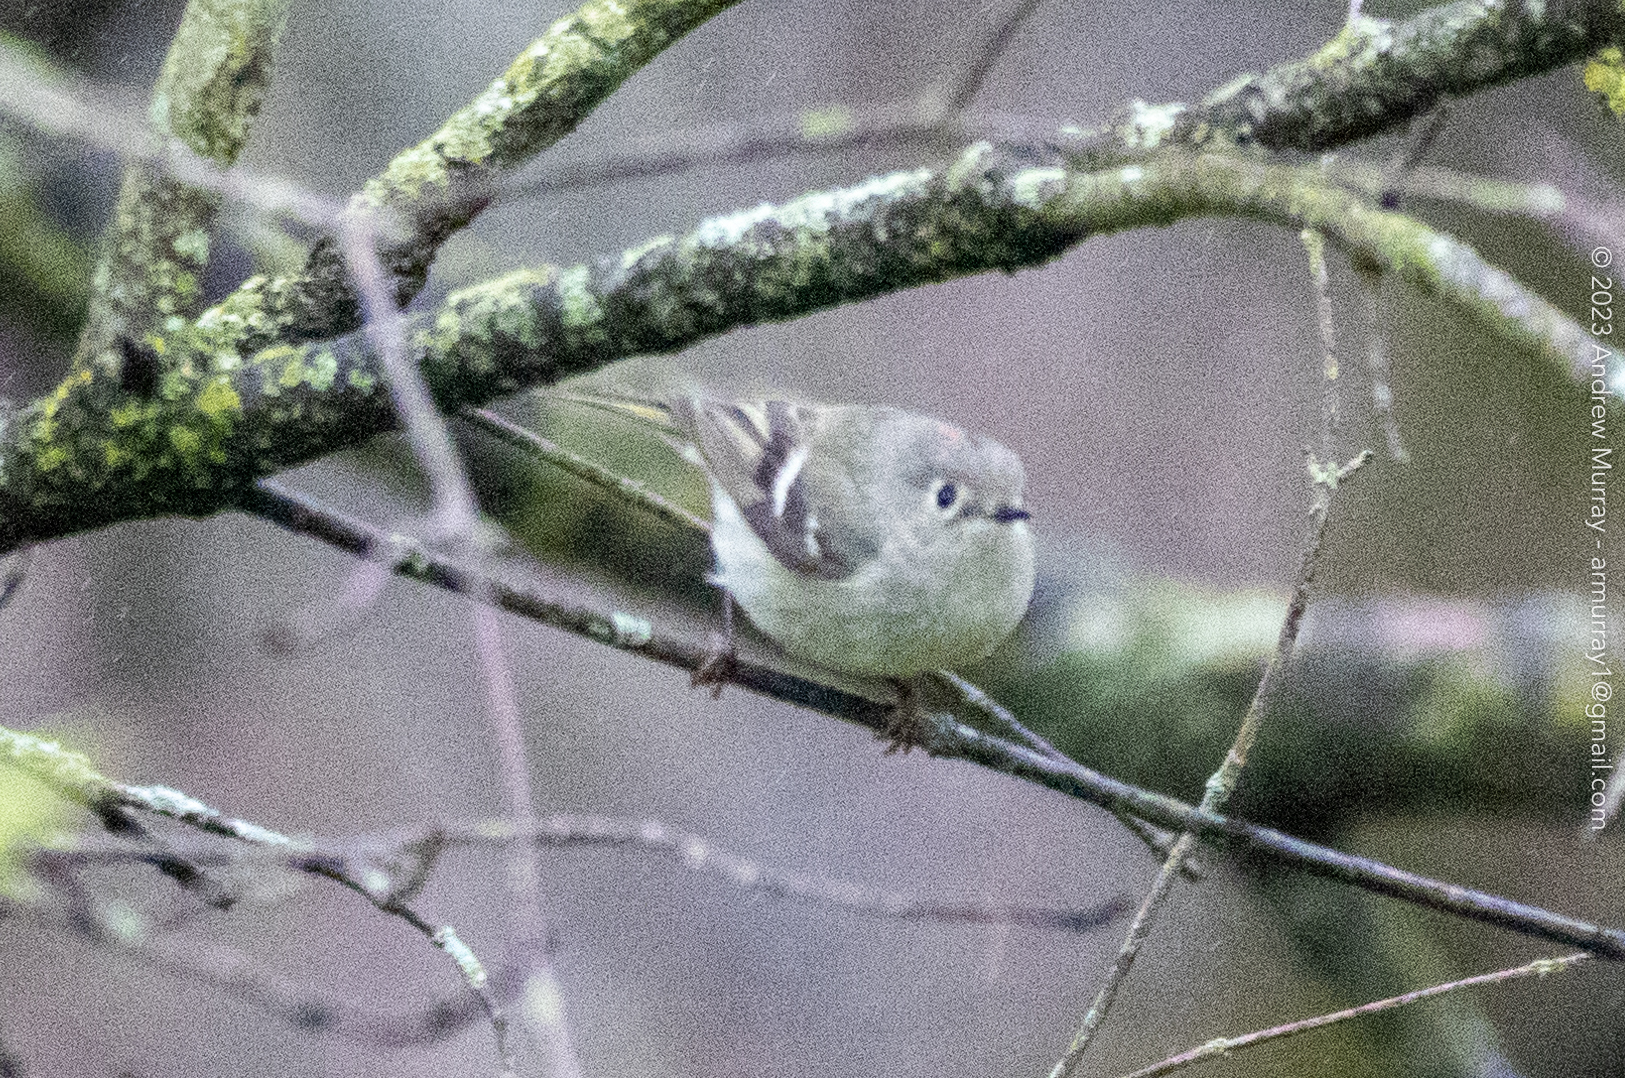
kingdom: Animalia
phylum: Chordata
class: Aves
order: Passeriformes
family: Regulidae
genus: Regulus
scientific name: Regulus calendula
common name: Ruby-crowned kinglet
